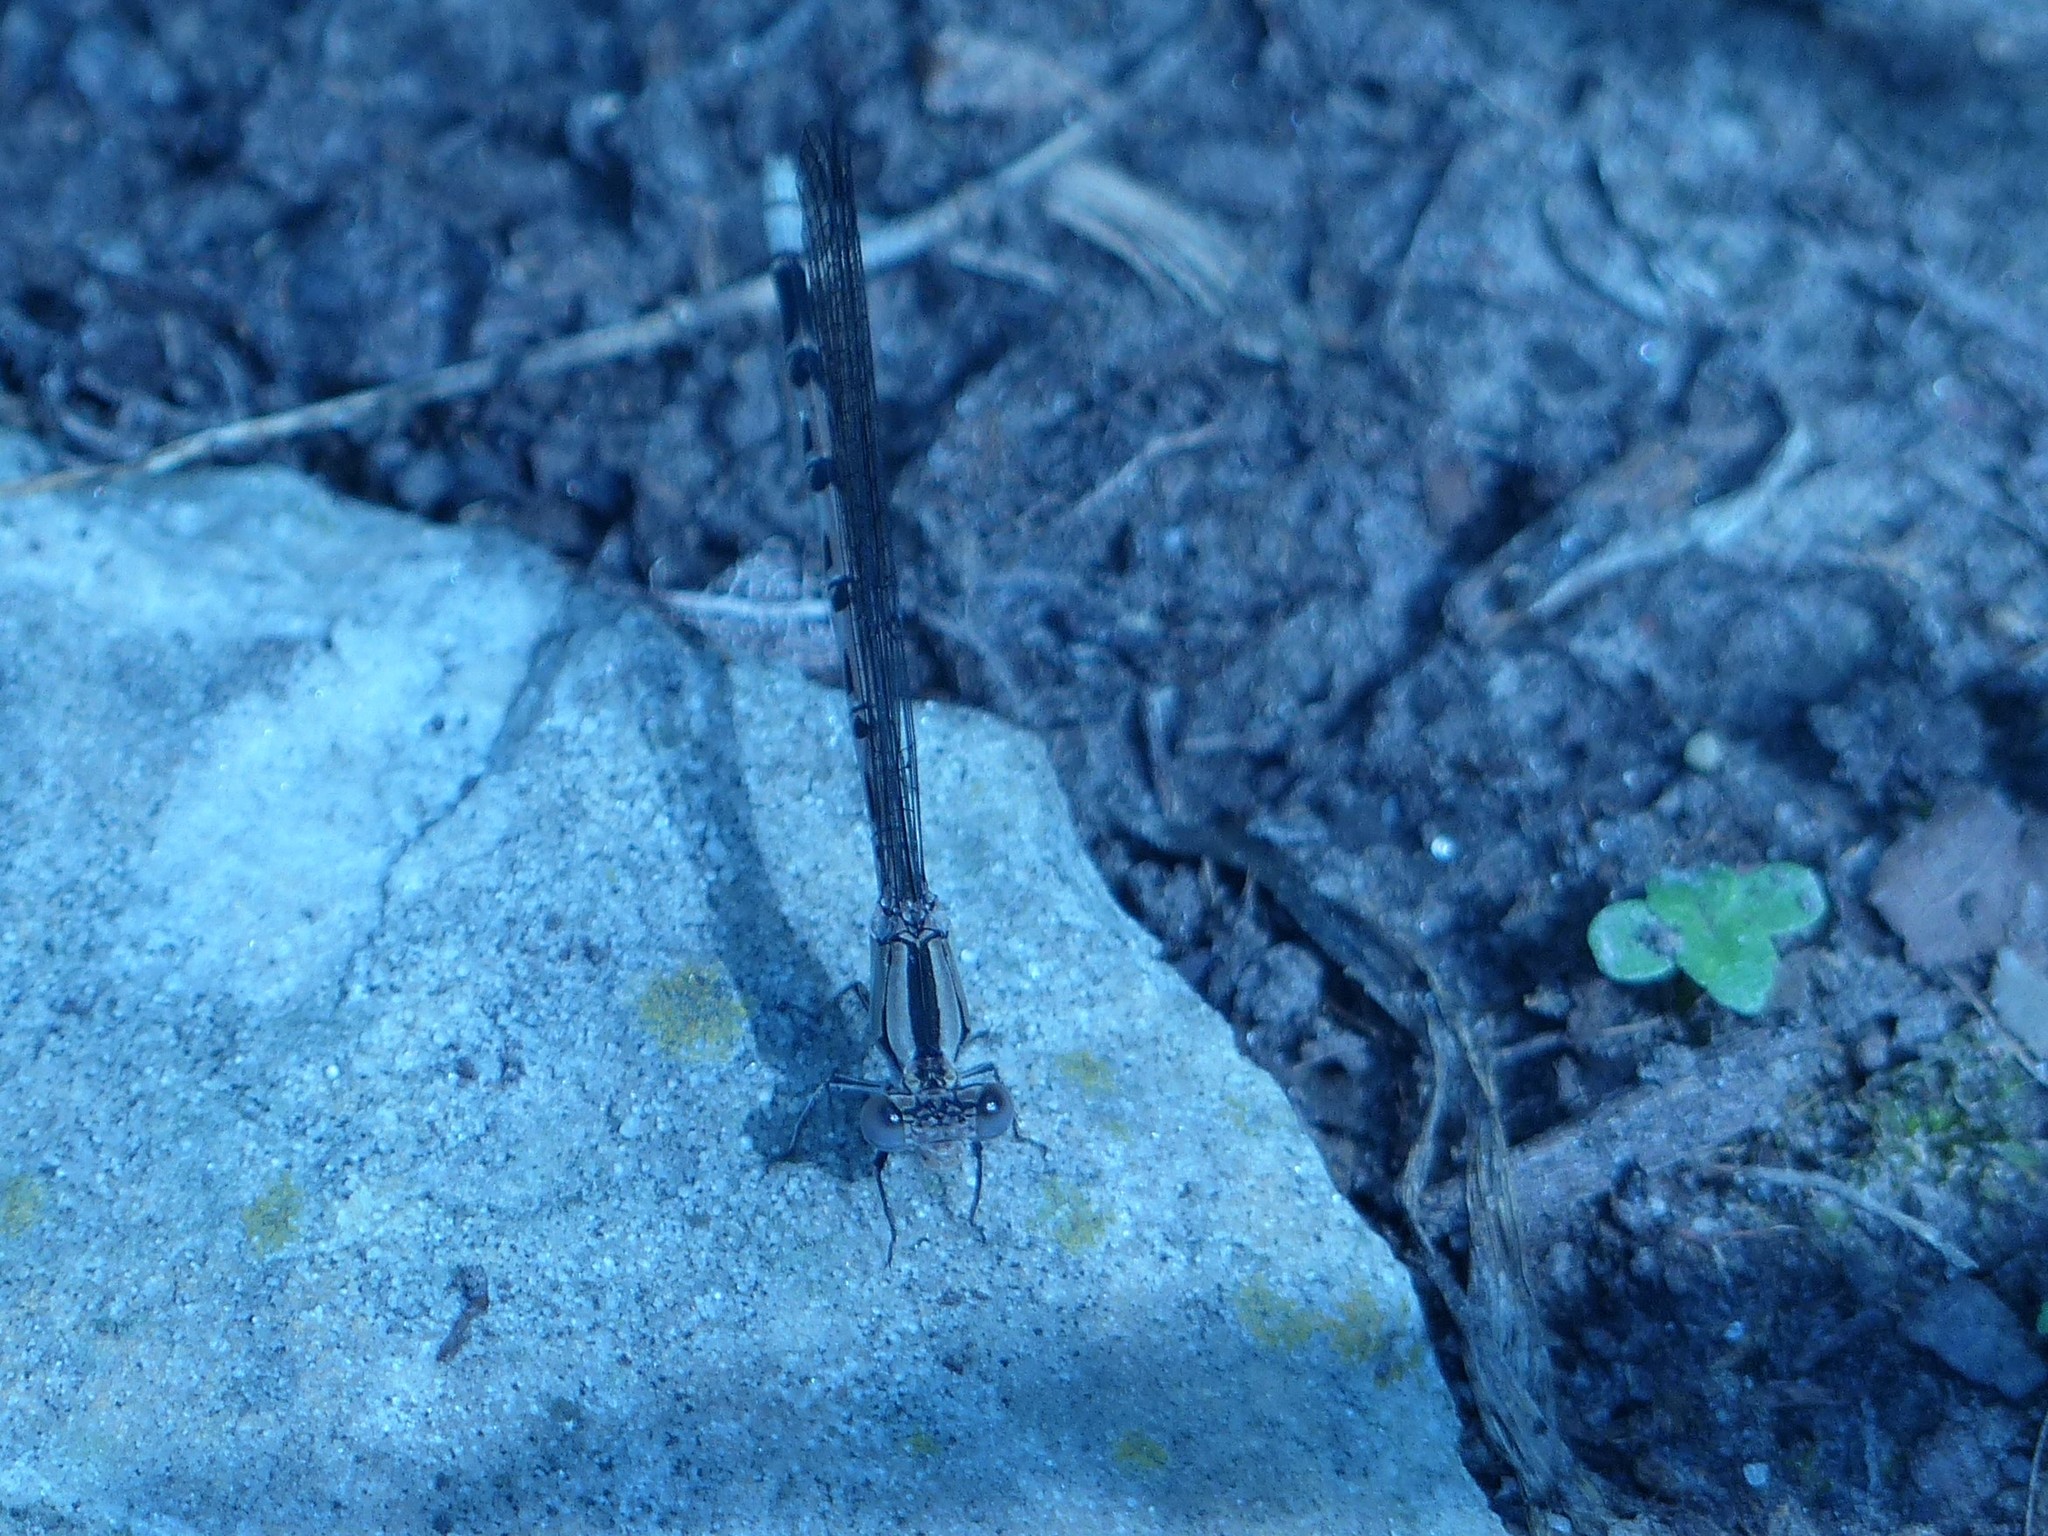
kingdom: Animalia
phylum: Arthropoda
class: Insecta
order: Odonata
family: Coenagrionidae
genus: Argia
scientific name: Argia funebris
